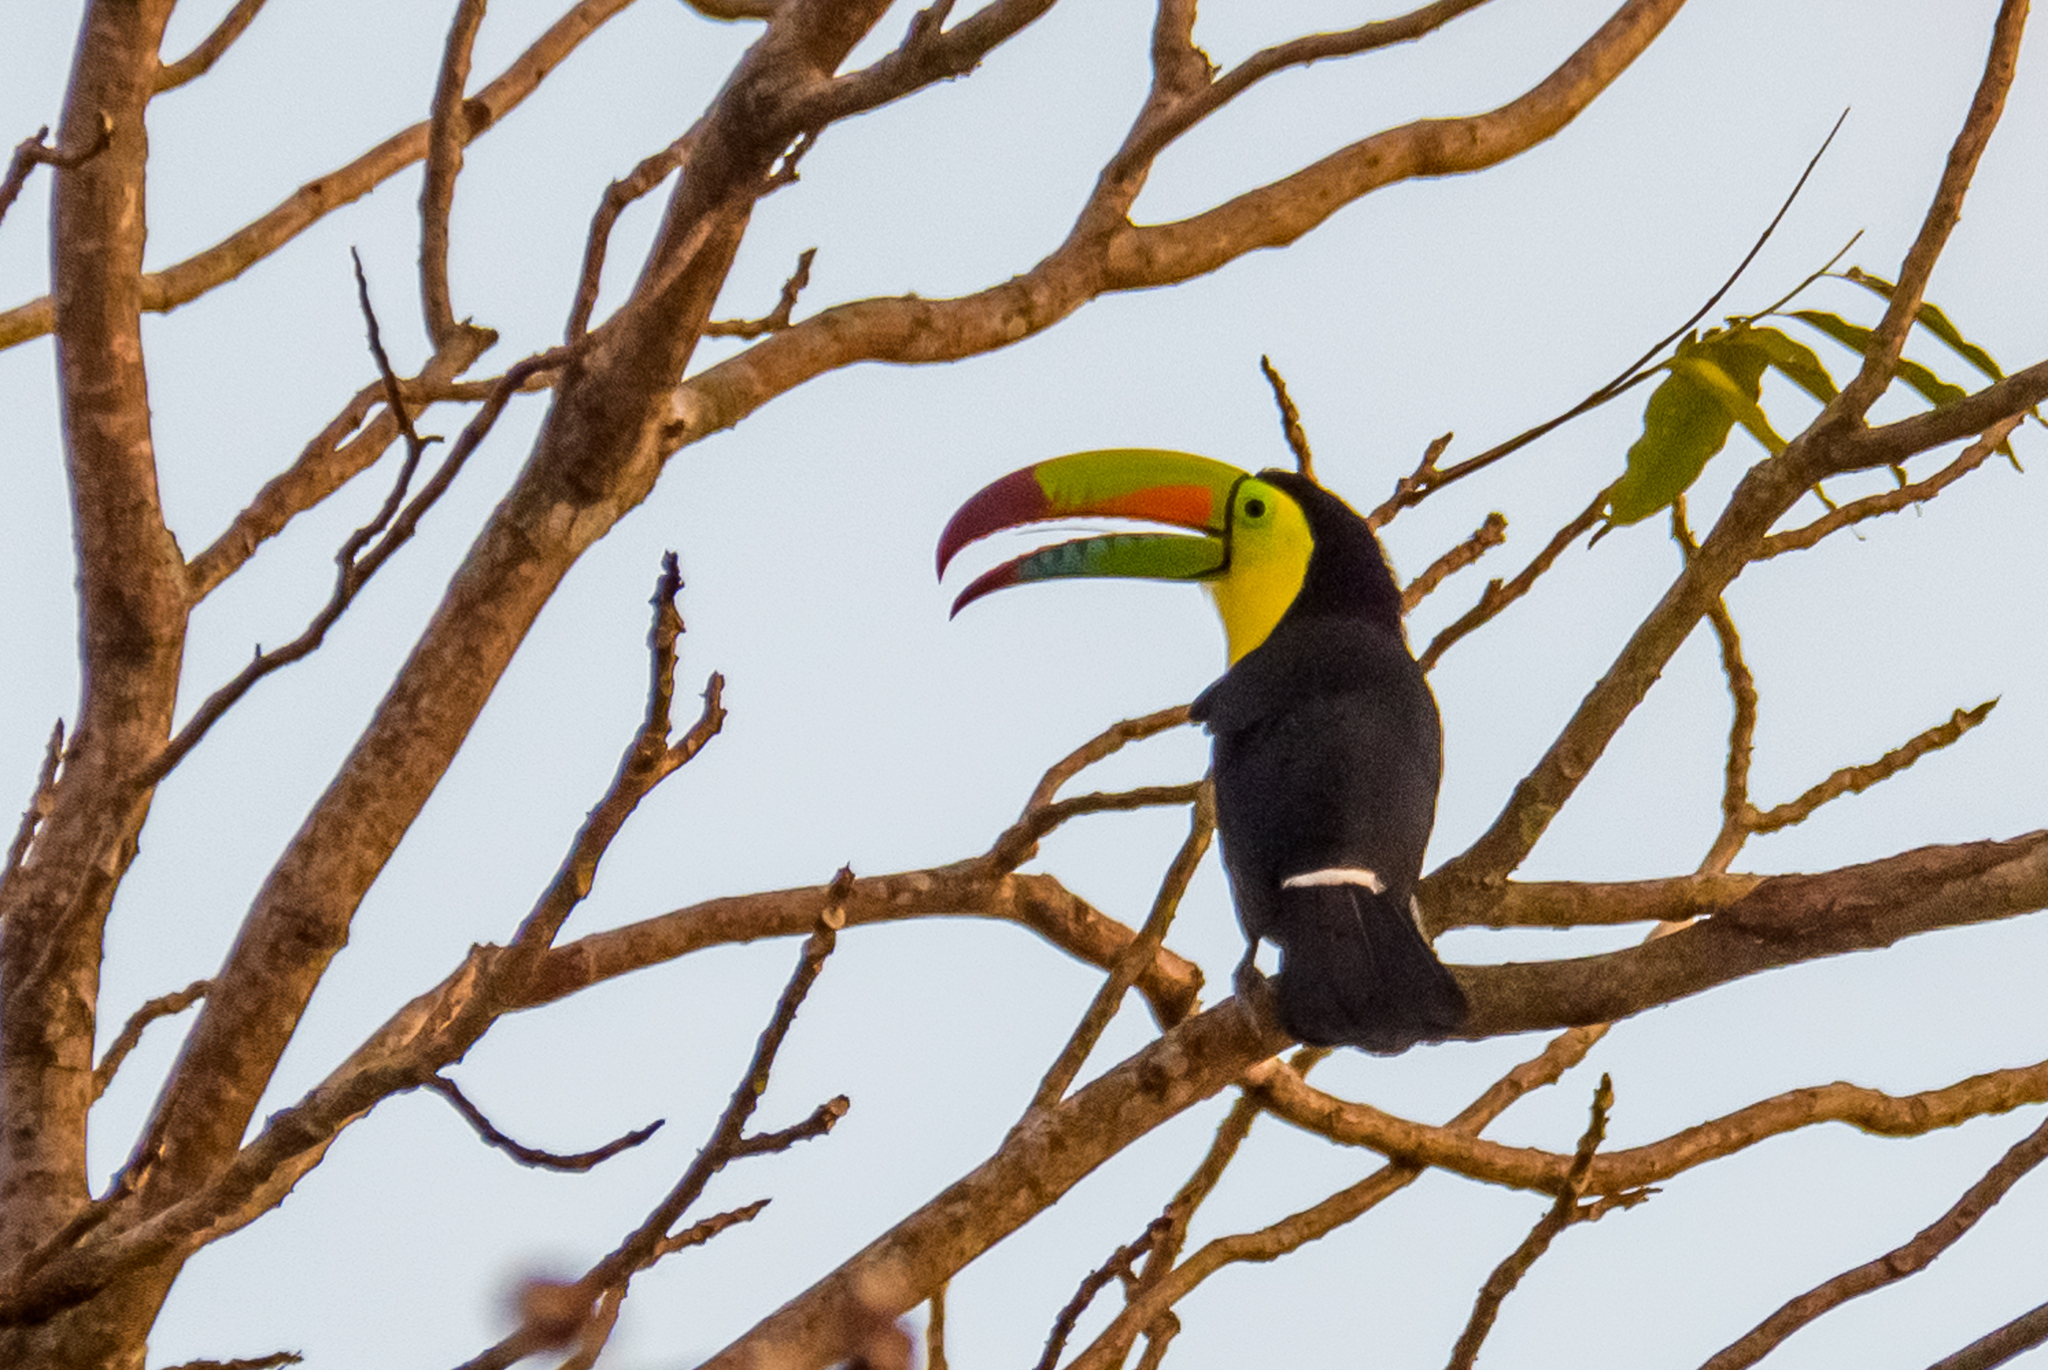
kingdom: Animalia
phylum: Chordata
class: Aves
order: Piciformes
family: Ramphastidae
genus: Ramphastos
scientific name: Ramphastos sulfuratus
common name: Keel-billed toucan
